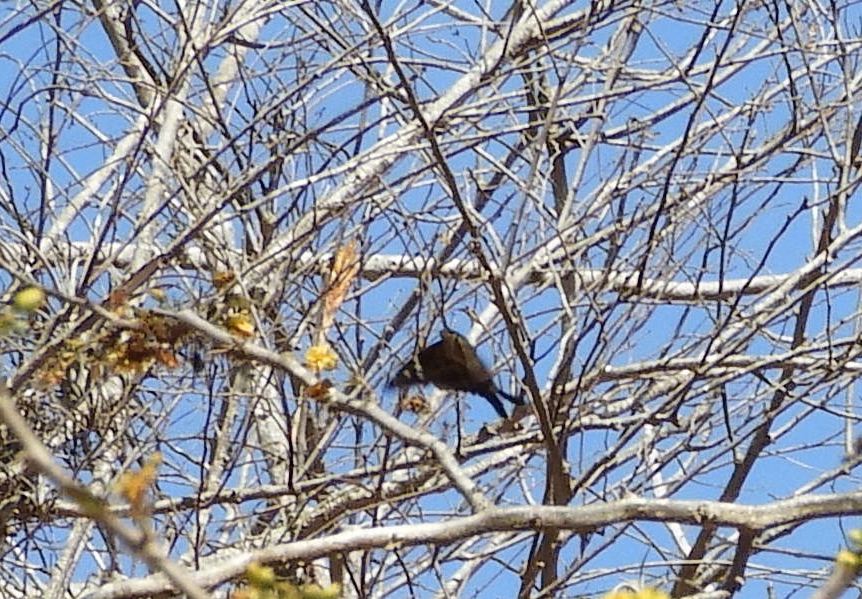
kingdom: Animalia
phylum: Arthropoda
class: Insecta
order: Lepidoptera
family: Hesperiidae
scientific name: Hesperiidae
